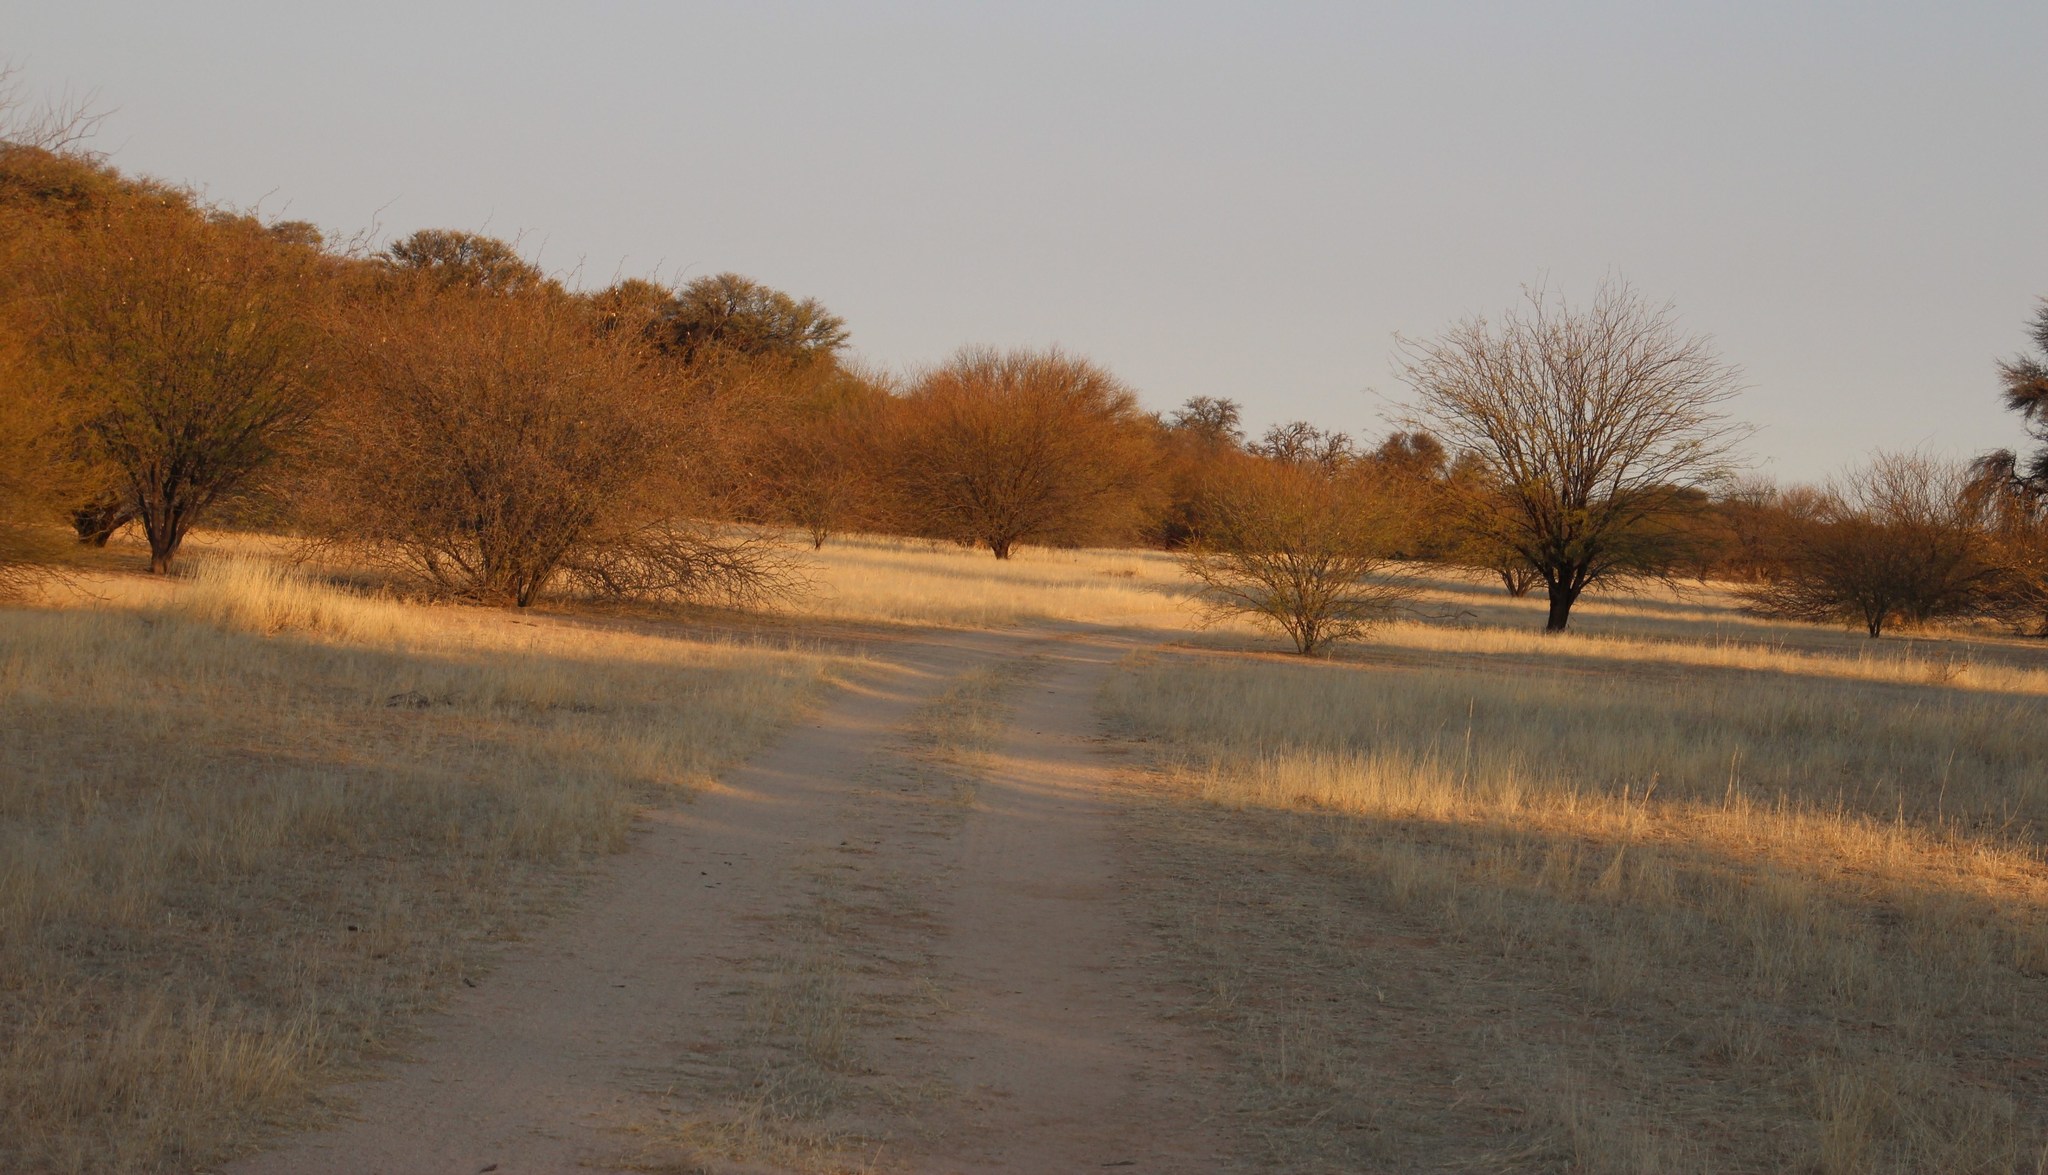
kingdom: Plantae
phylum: Tracheophyta
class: Magnoliopsida
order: Fabales
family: Fabaceae
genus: Prosopis
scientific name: Prosopis glandulosa
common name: Honey mesquite
